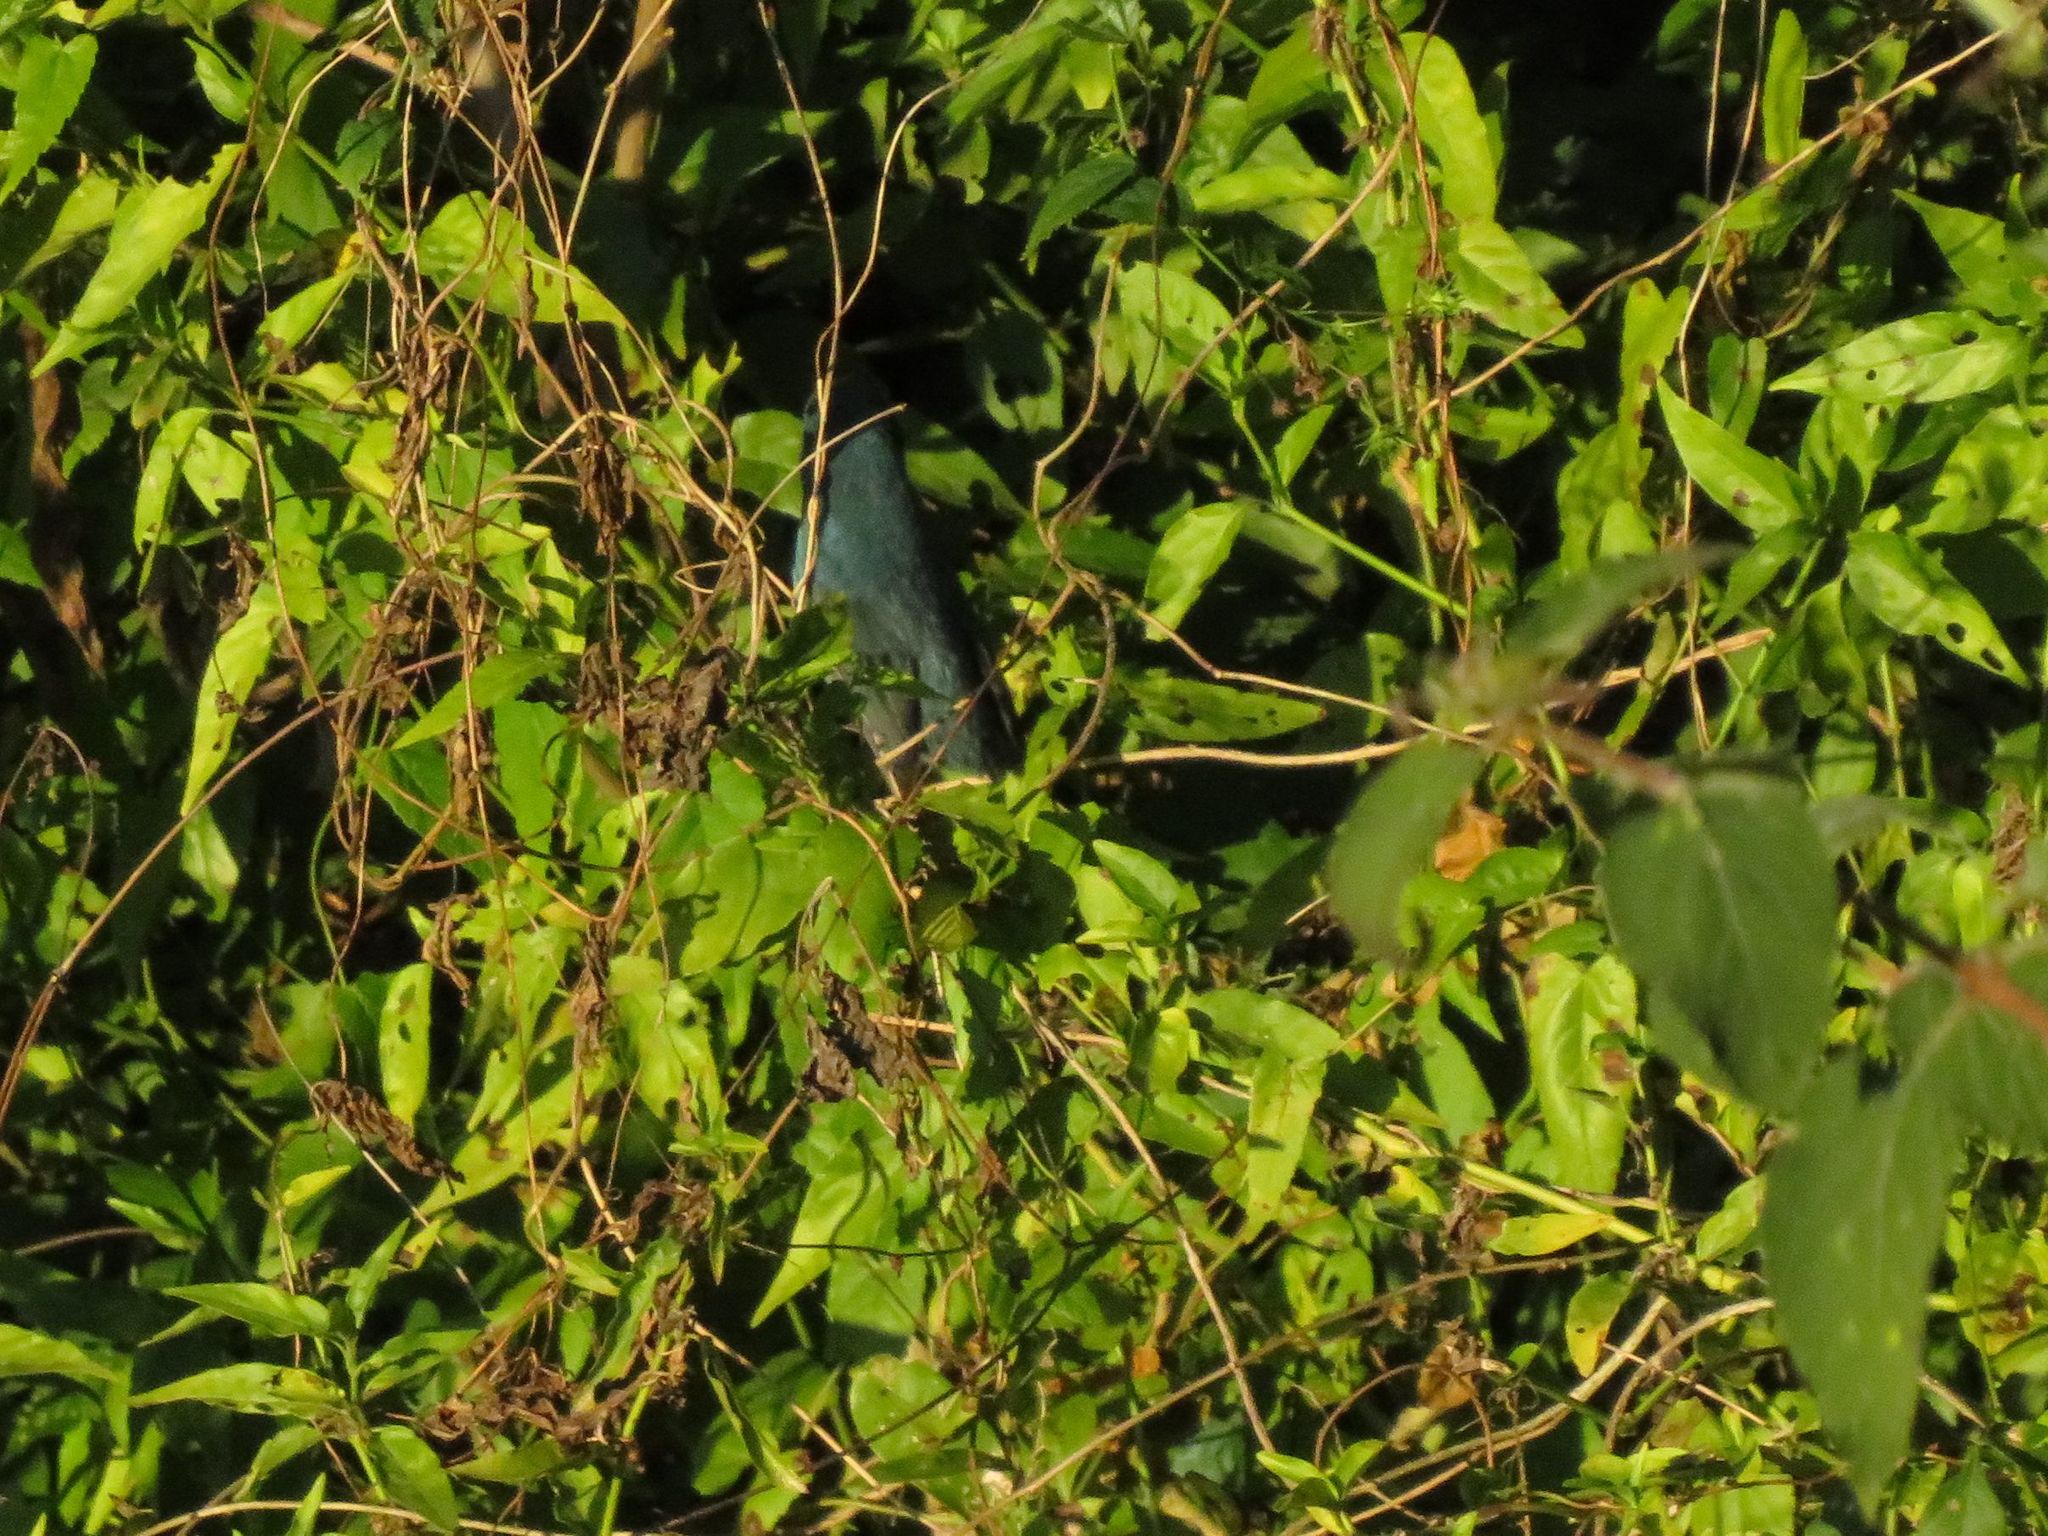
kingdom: Animalia
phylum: Chordata
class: Aves
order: Passeriformes
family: Cardinalidae
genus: Cyanoloxia
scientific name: Cyanoloxia glaucocaerulea
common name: Glaucous-blue grosbeak
